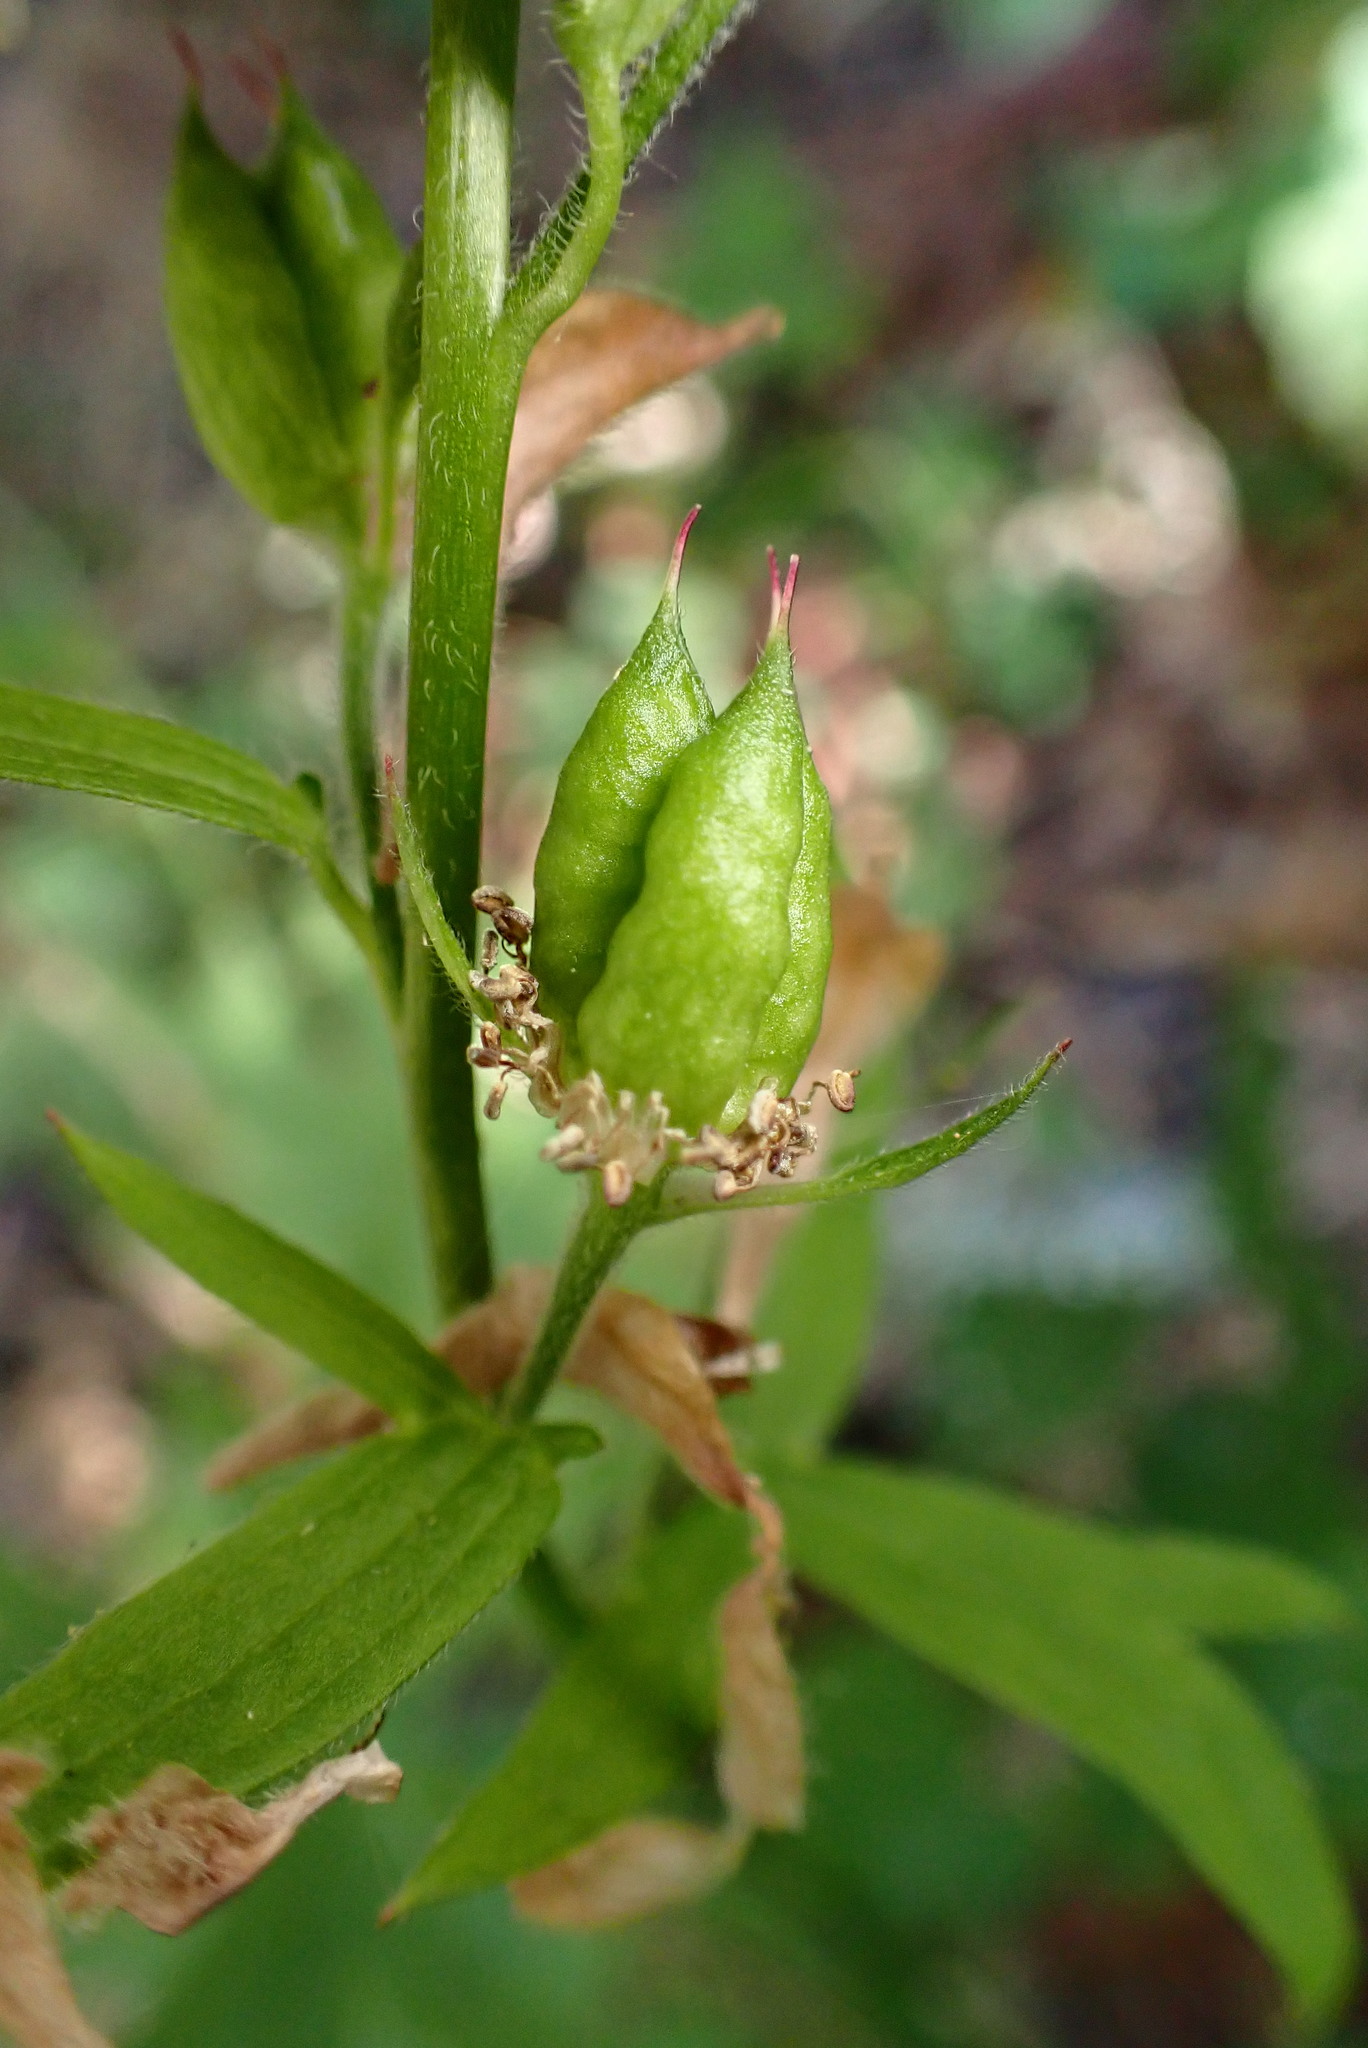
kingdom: Plantae
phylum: Tracheophyta
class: Magnoliopsida
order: Ranunculales
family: Ranunculaceae
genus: Delphinium
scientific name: Delphinium californicum
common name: California larkspur
